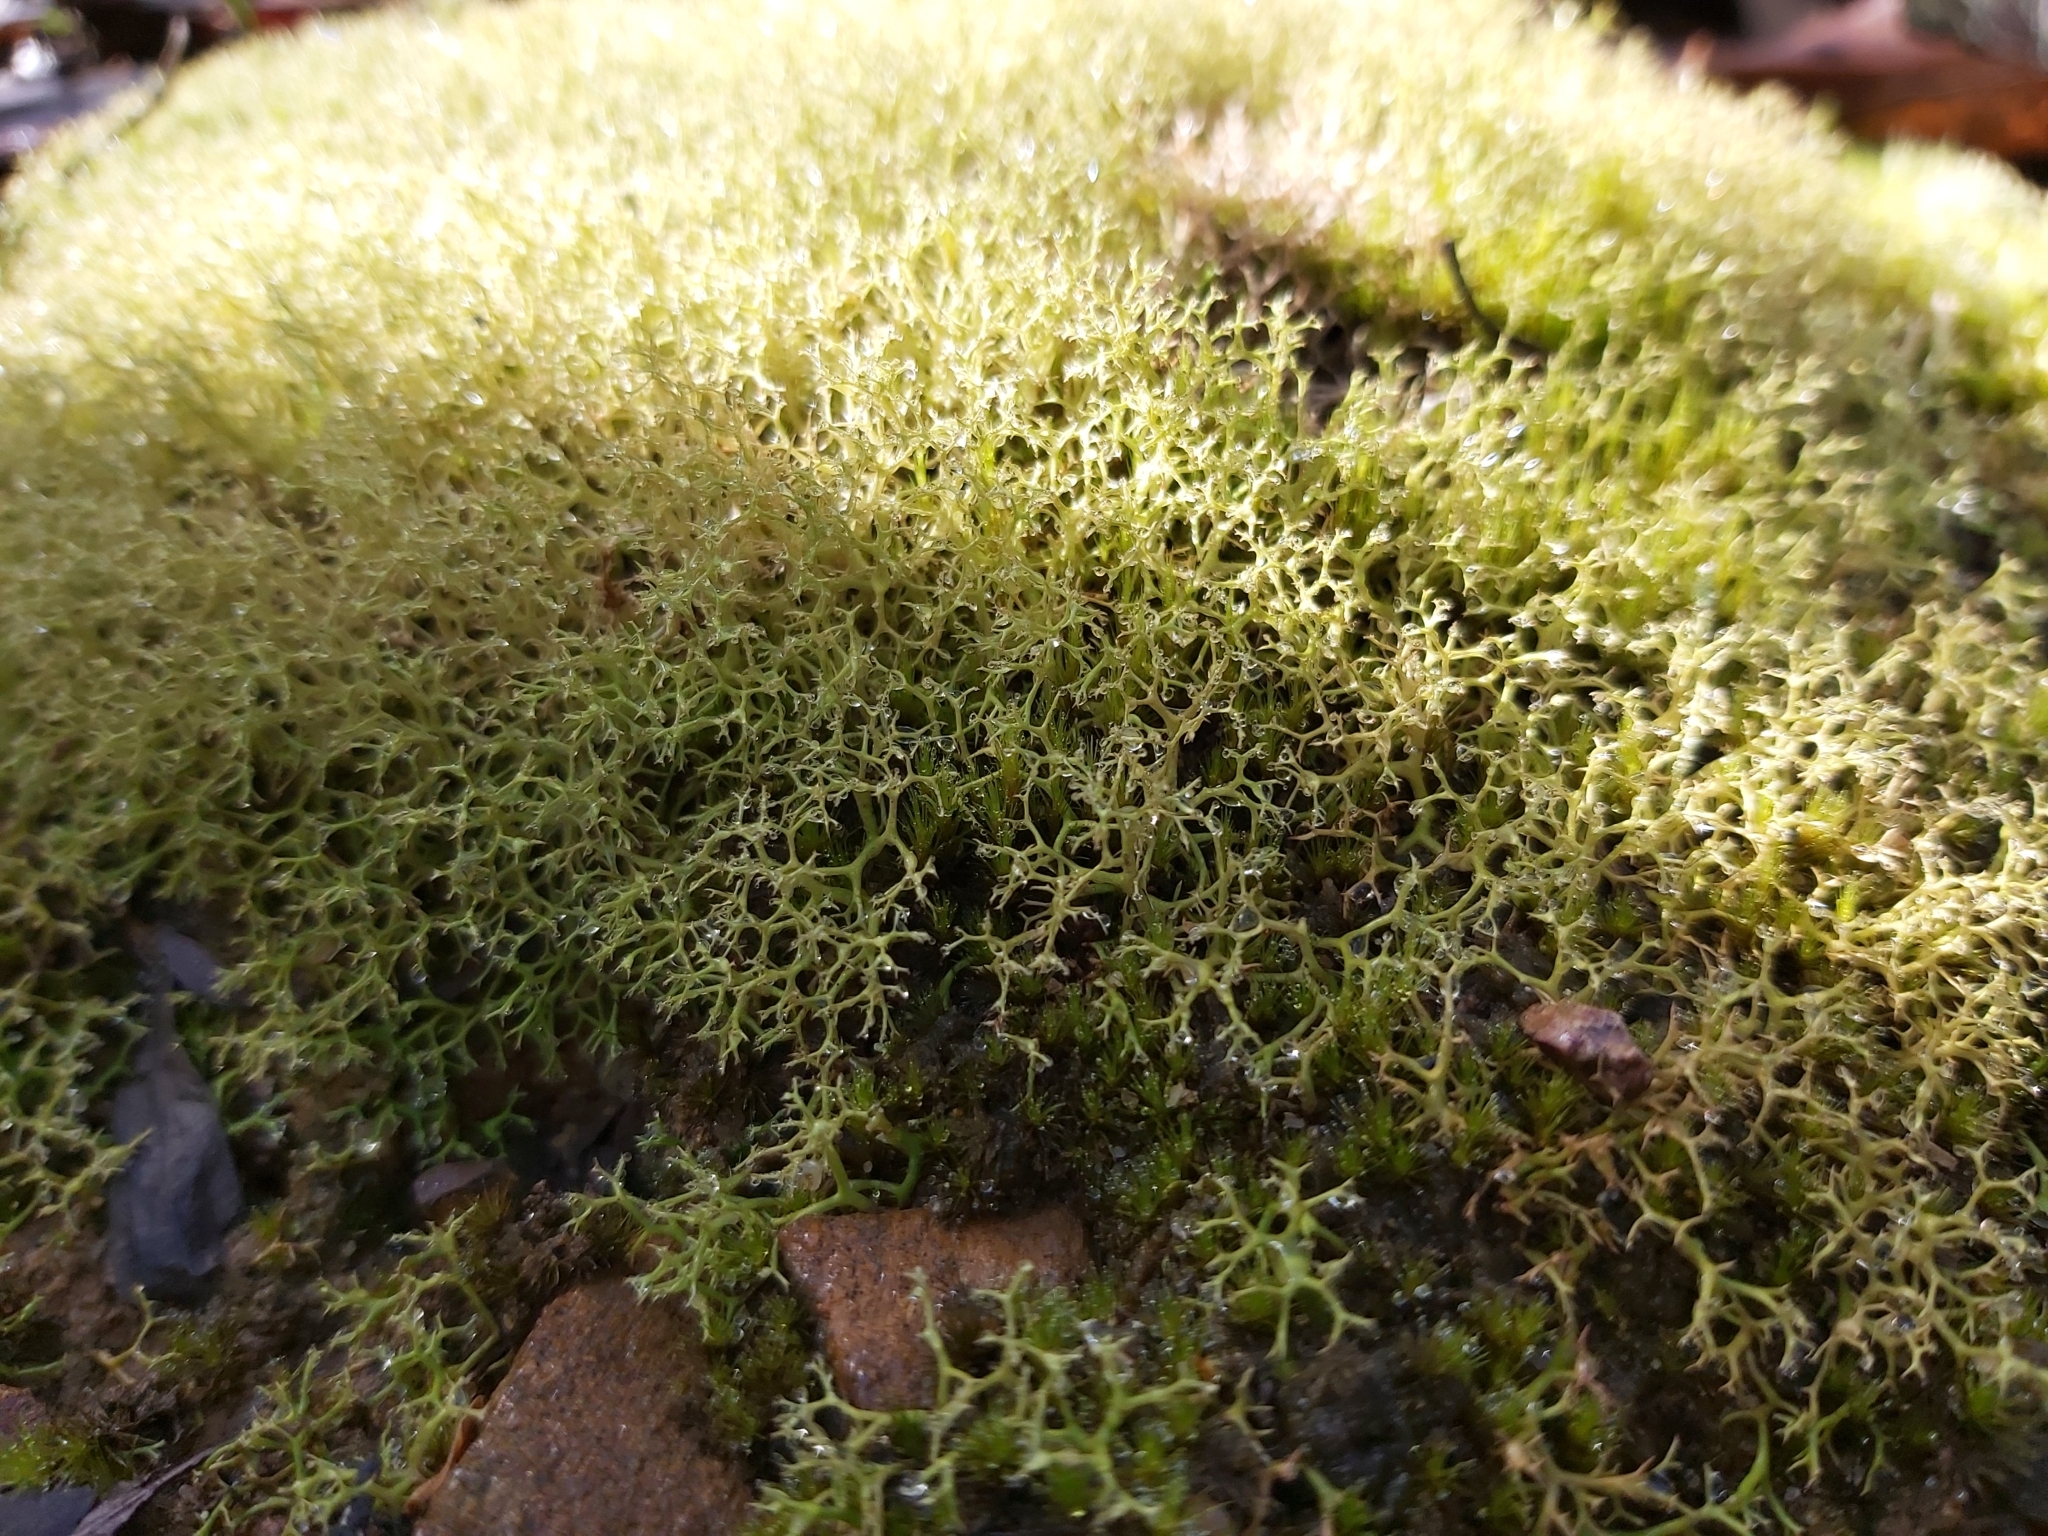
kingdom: Fungi
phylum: Ascomycota
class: Lecanoromycetes
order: Lecanorales
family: Cladoniaceae
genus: Cladia
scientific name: Cladia aggregata
